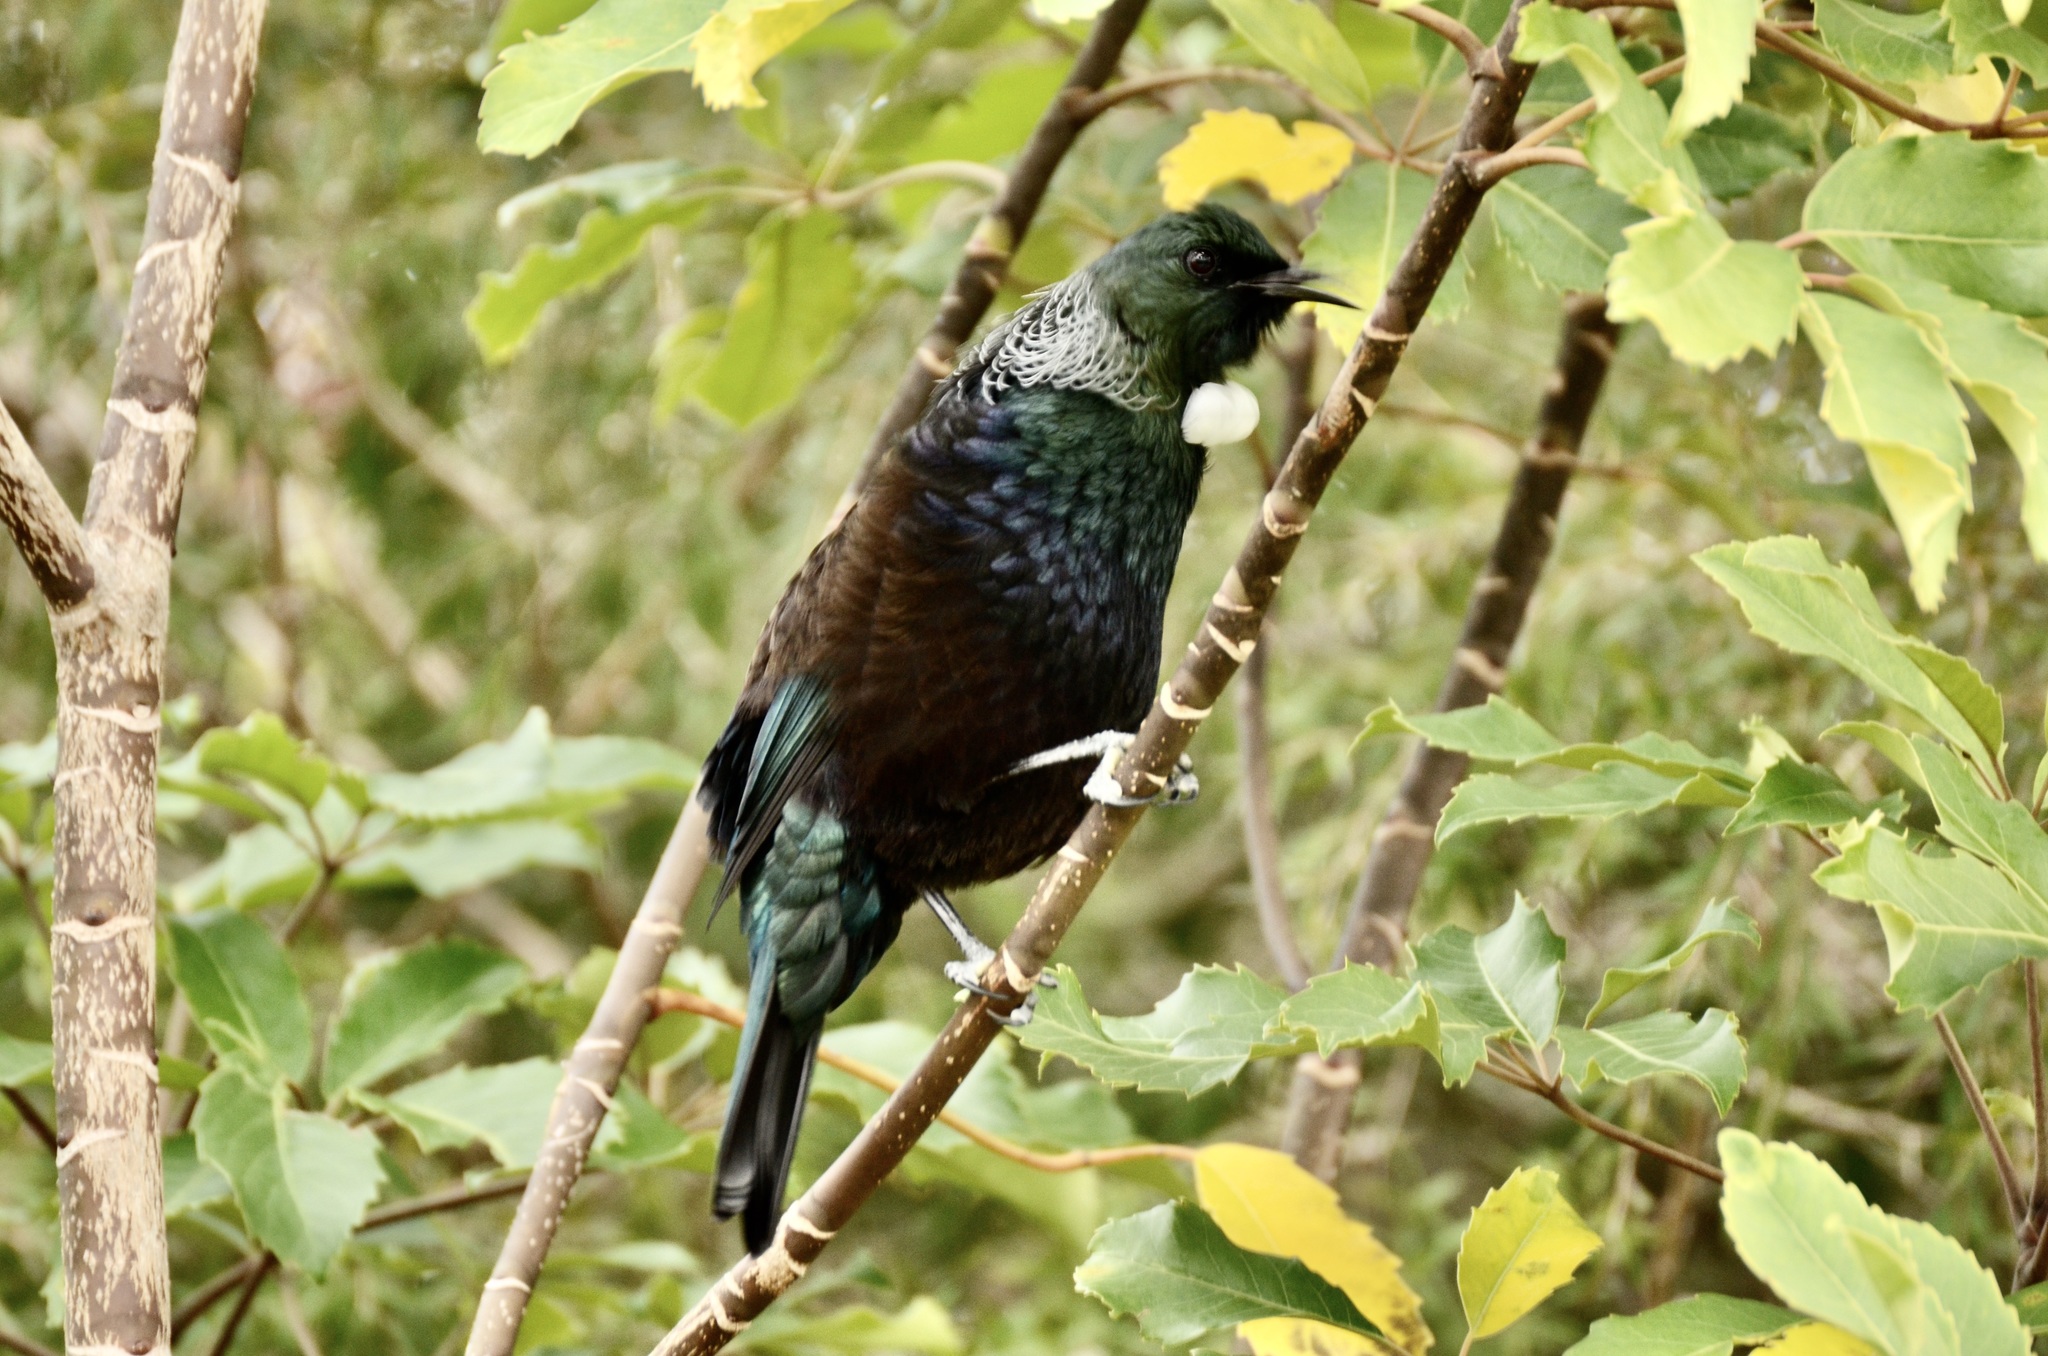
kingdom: Animalia
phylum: Chordata
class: Aves
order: Passeriformes
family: Meliphagidae
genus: Prosthemadera
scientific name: Prosthemadera novaeseelandiae
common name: Tui
